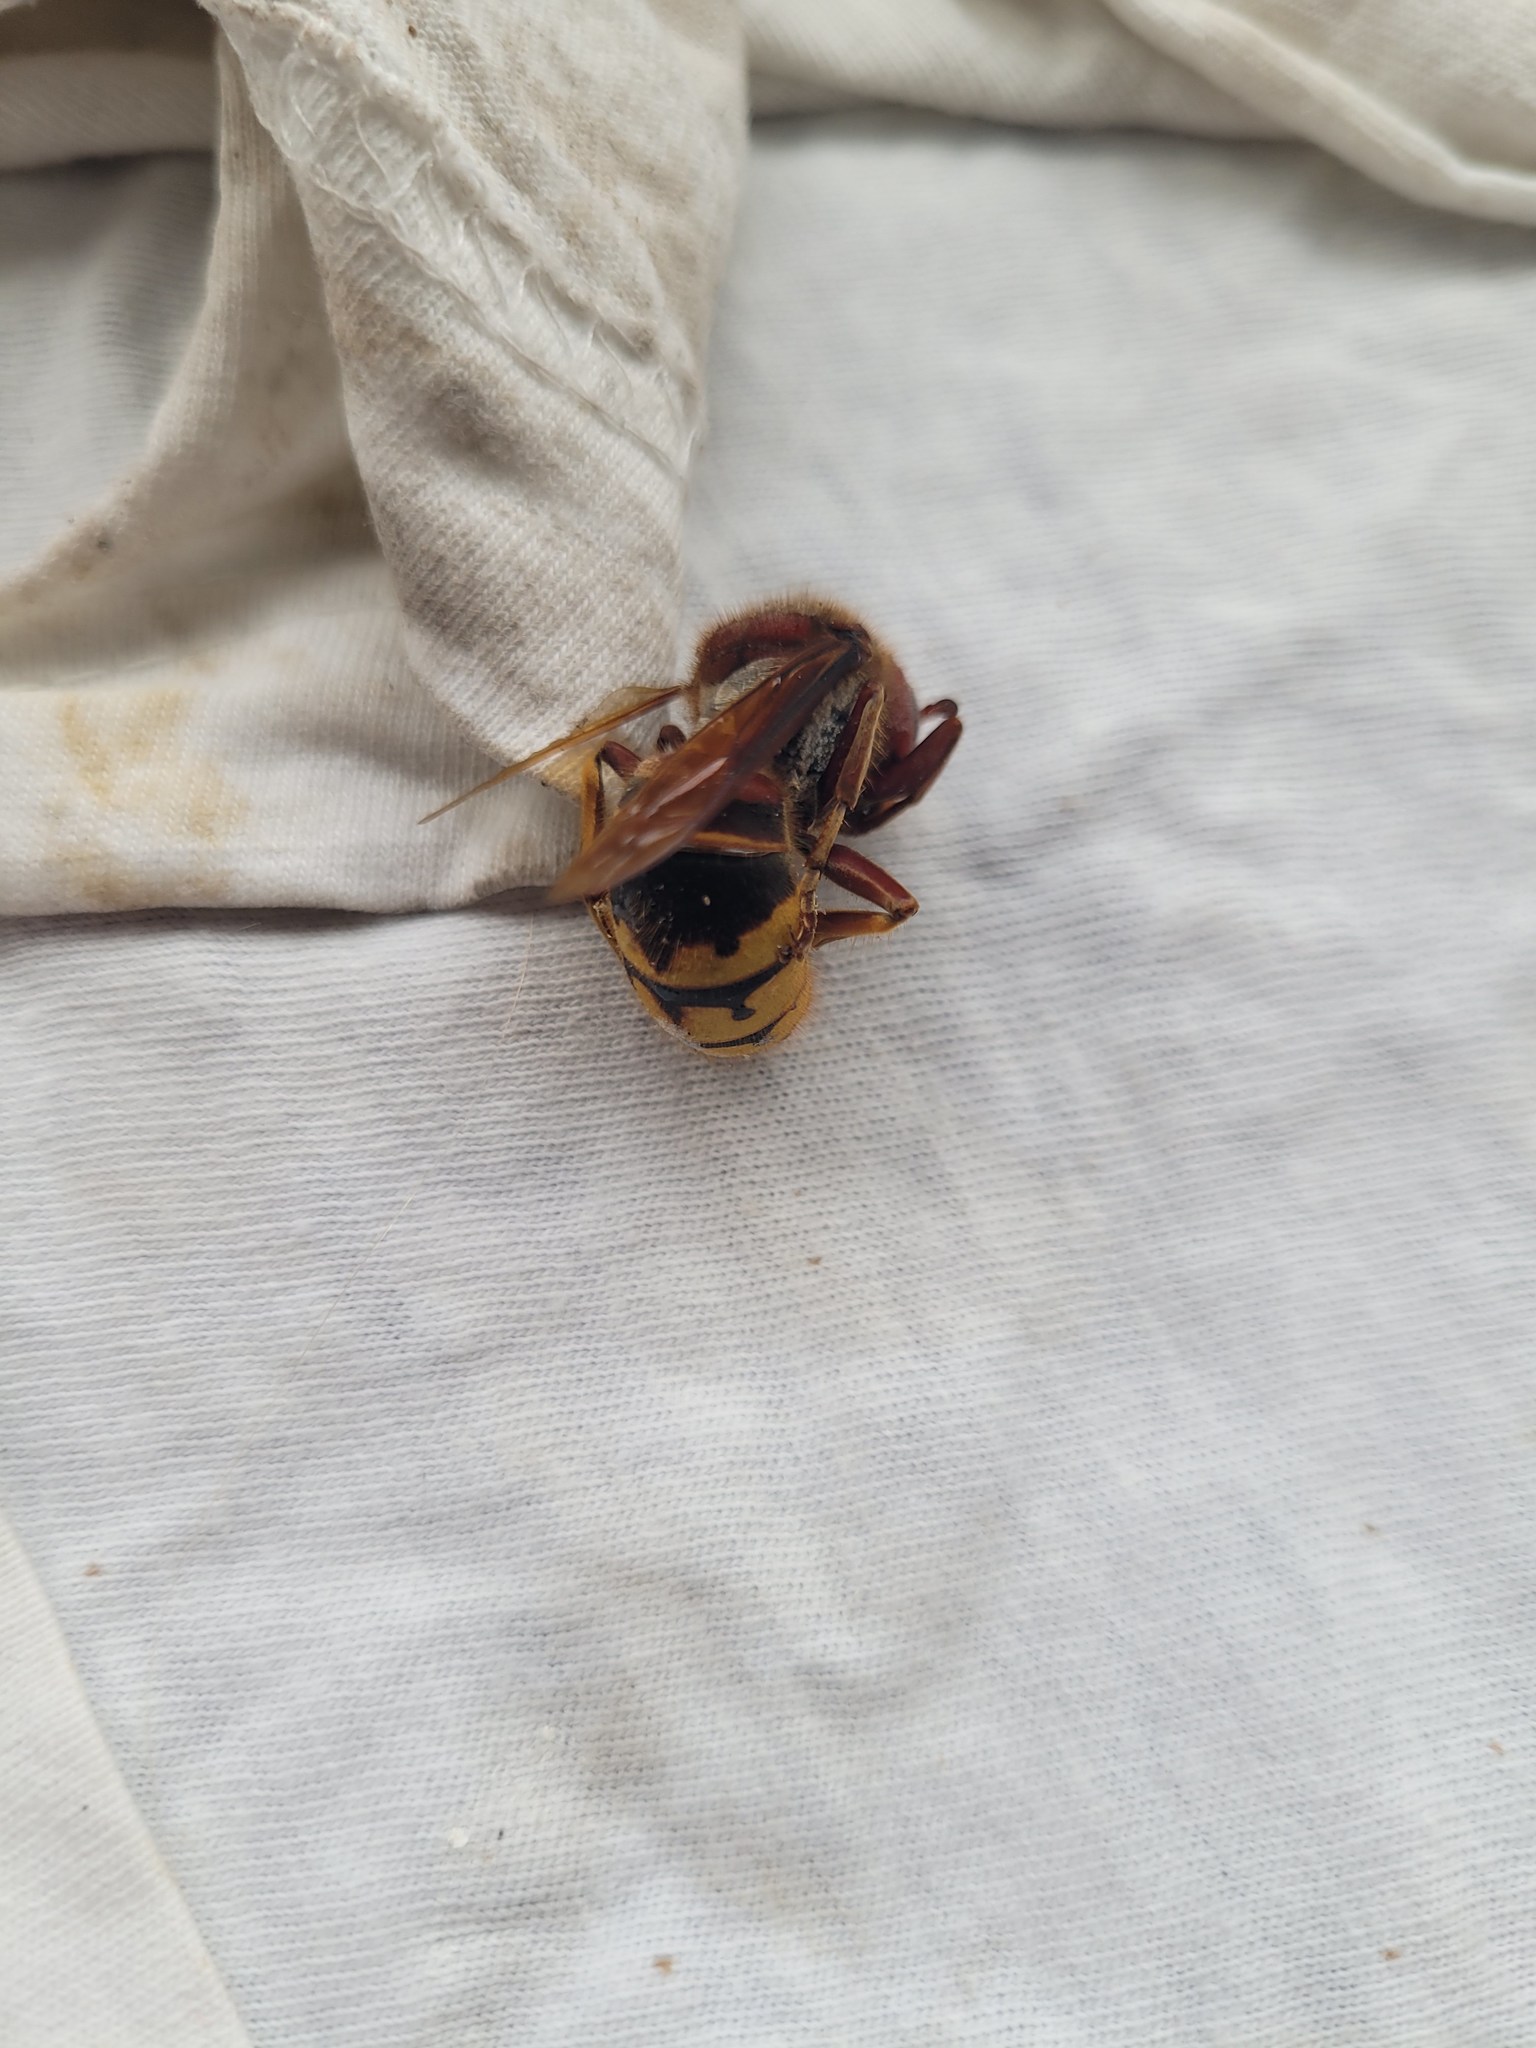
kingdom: Animalia
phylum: Arthropoda
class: Insecta
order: Hymenoptera
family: Vespidae
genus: Vespa
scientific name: Vespa crabro
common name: Hornet
